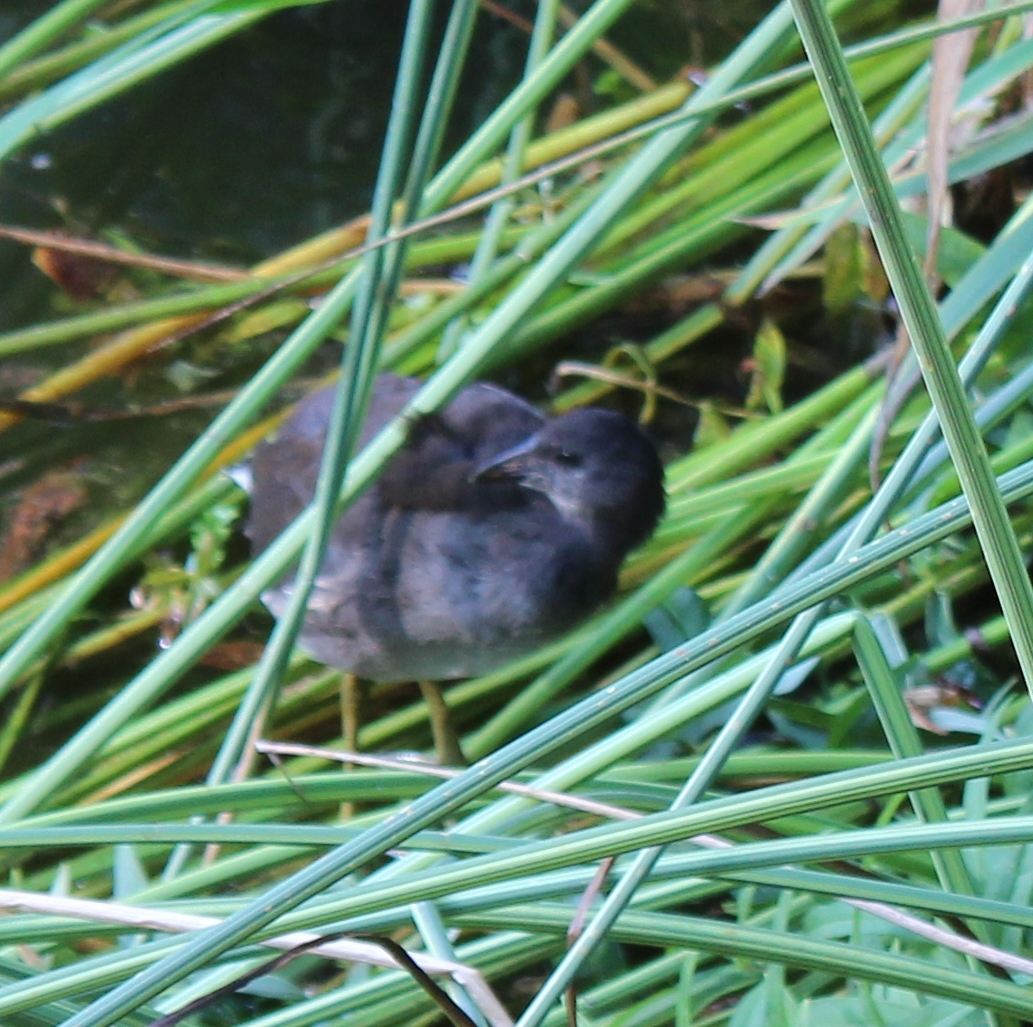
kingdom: Animalia
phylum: Chordata
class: Aves
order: Gruiformes
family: Rallidae
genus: Gallinula
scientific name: Gallinula chloropus
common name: Common moorhen
